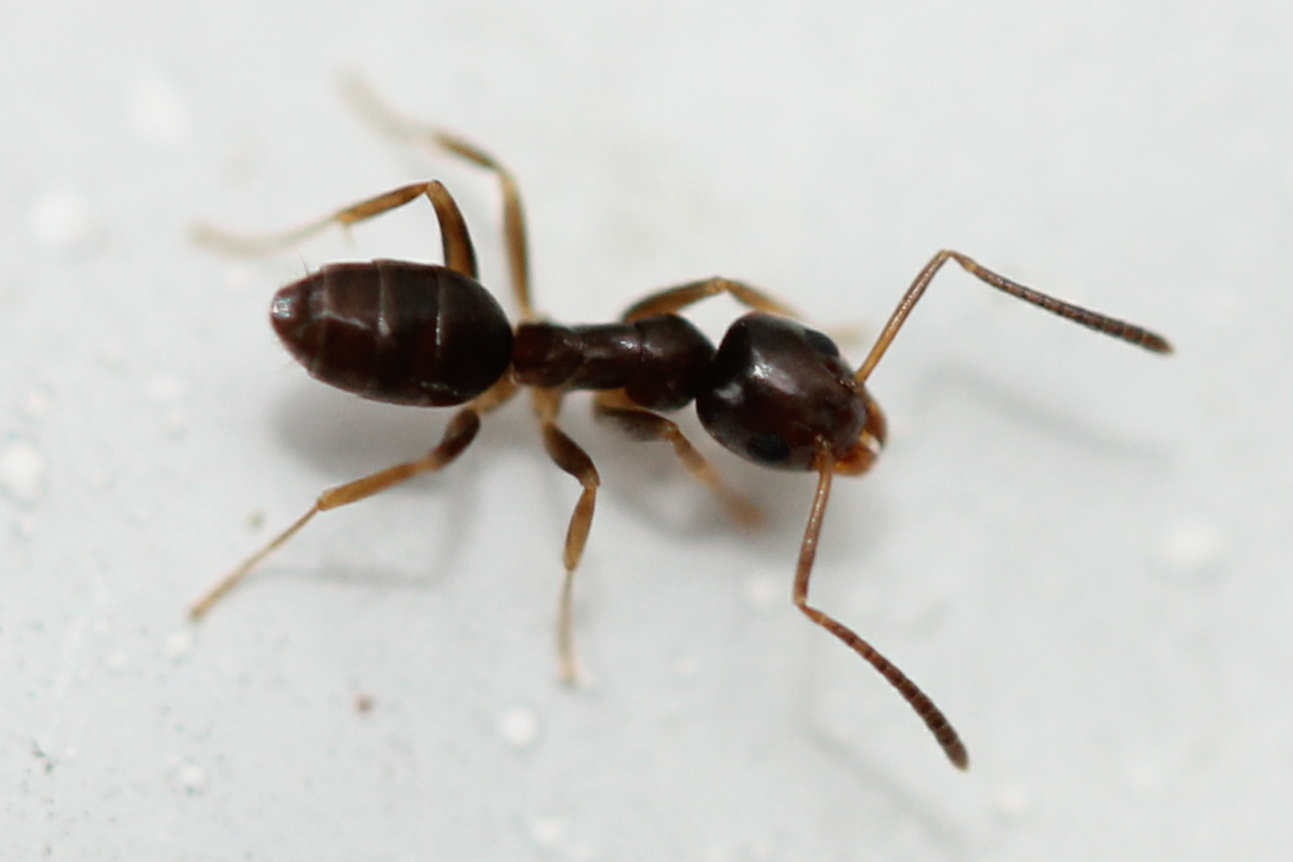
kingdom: Animalia
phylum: Arthropoda
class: Insecta
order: Hymenoptera
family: Formicidae
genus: Tapinoma
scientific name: Tapinoma sessile
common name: Odorous house ant
